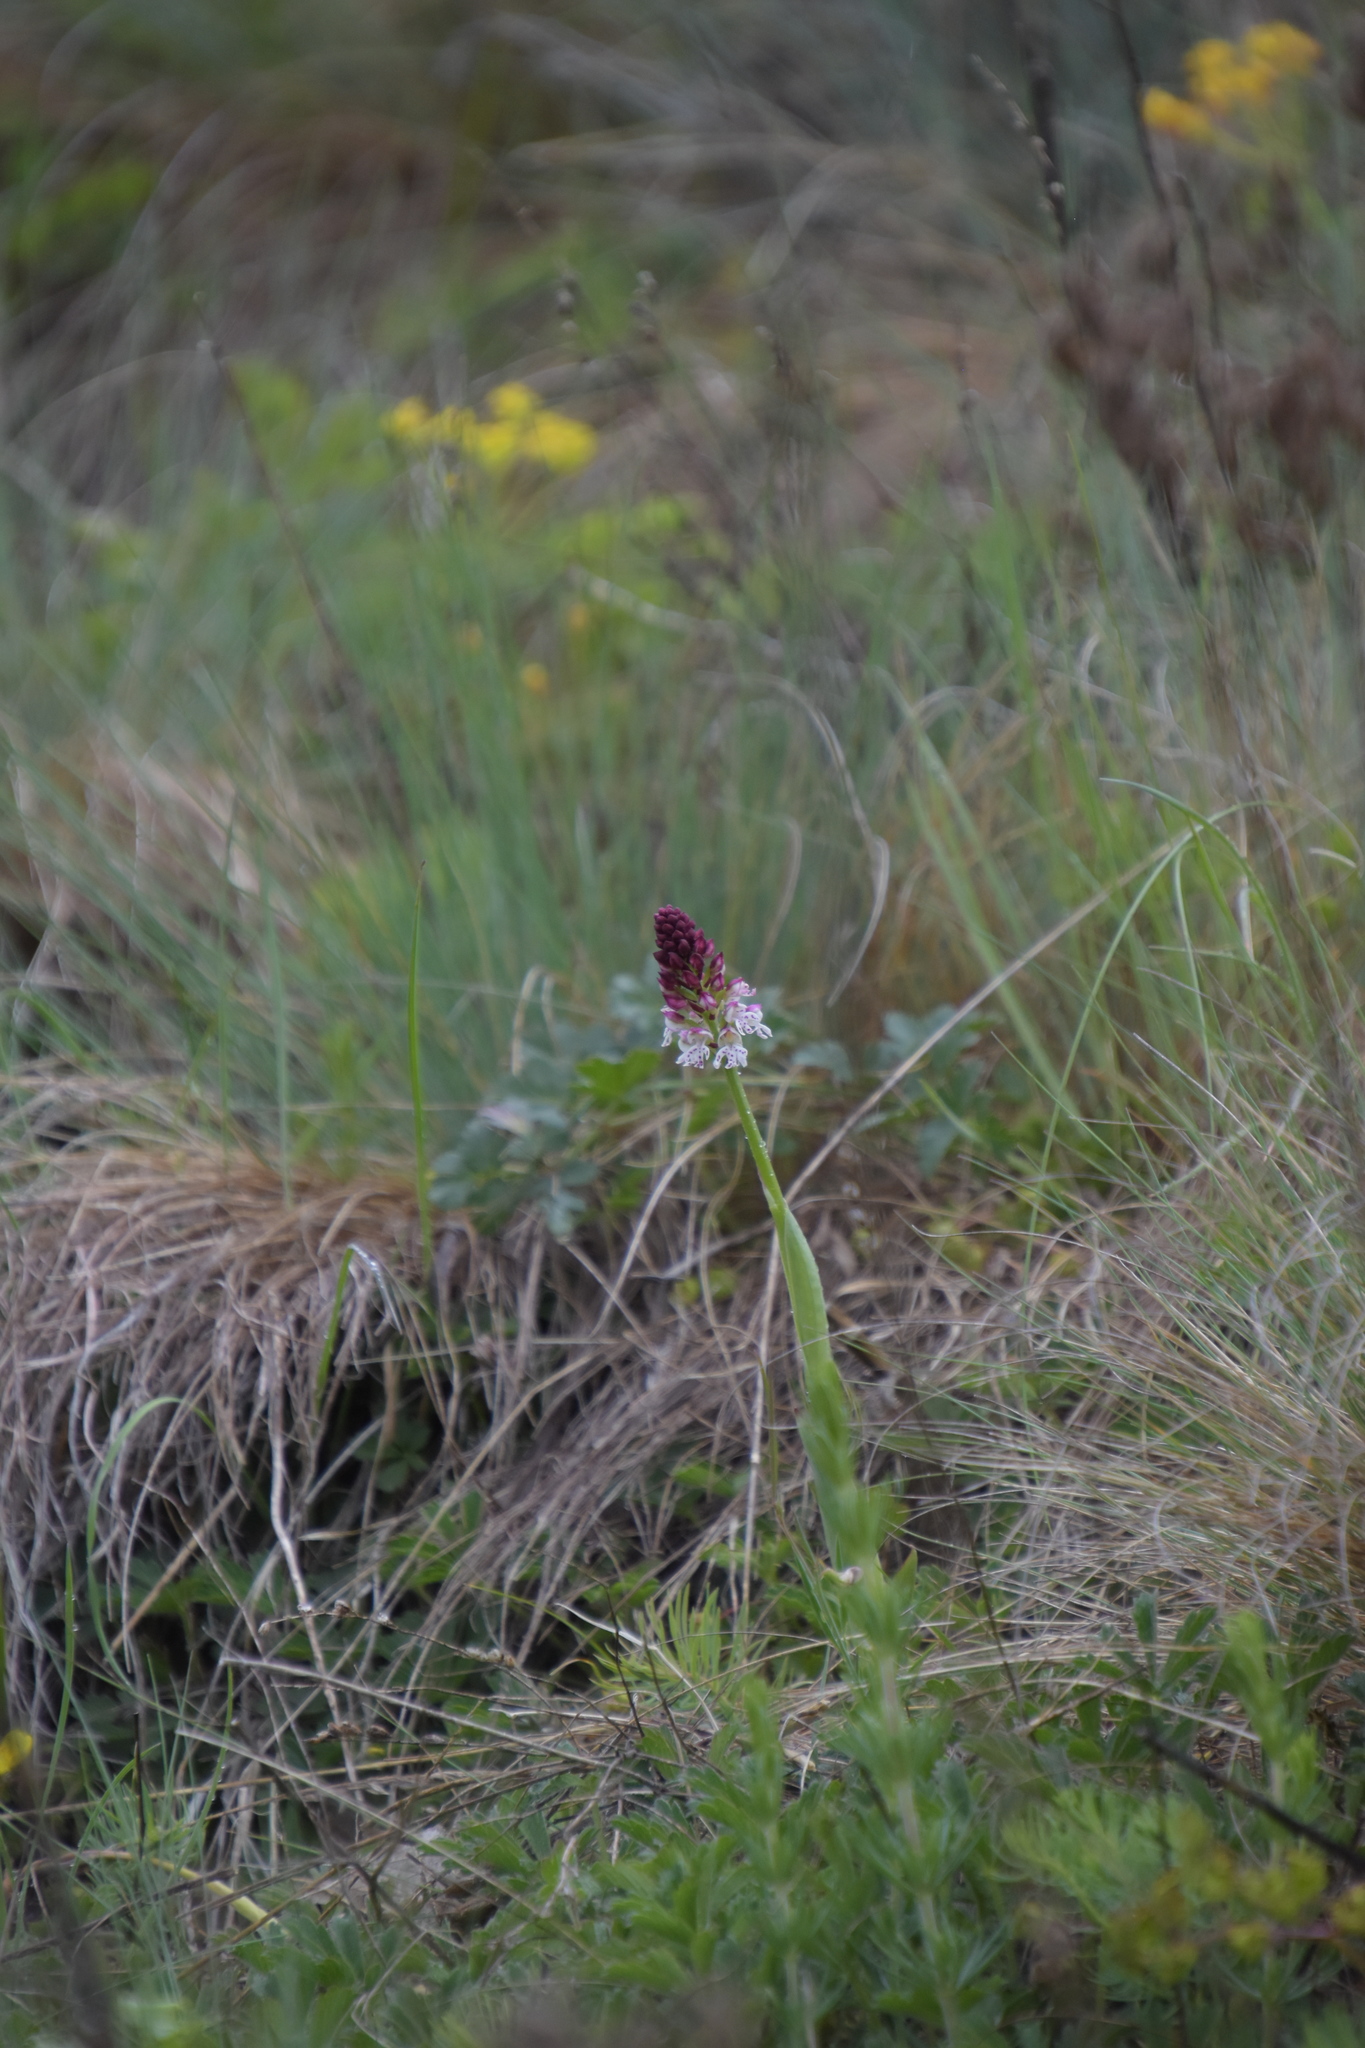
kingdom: Plantae
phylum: Tracheophyta
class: Liliopsida
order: Asparagales
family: Orchidaceae
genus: Neotinea
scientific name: Neotinea ustulata
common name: Burnt orchid
